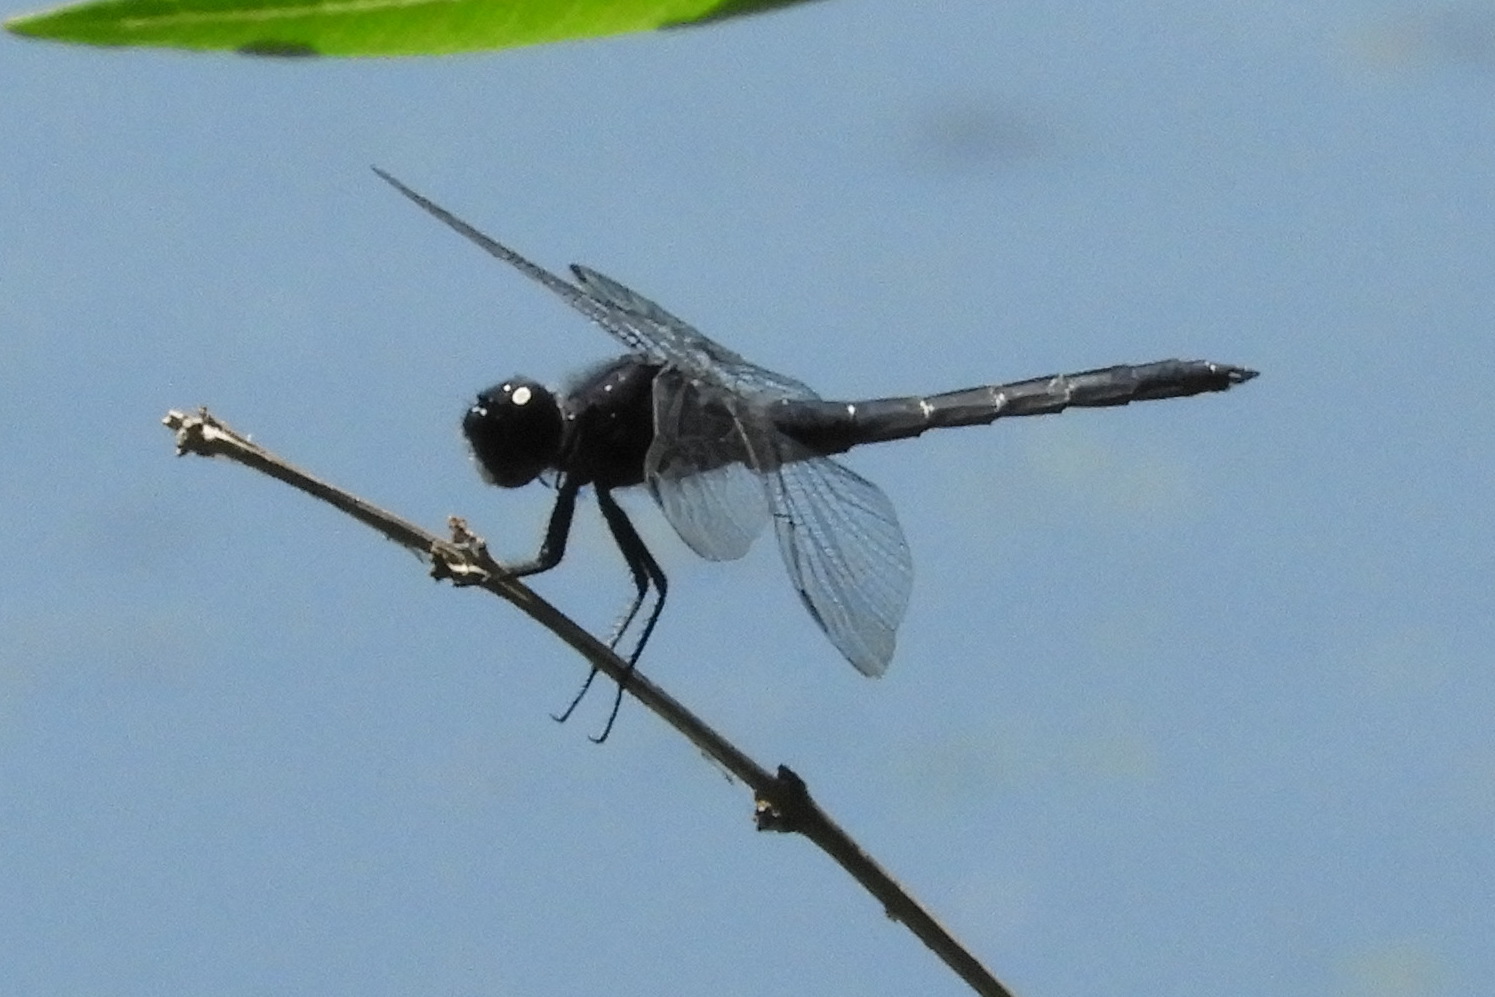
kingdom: Animalia
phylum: Arthropoda
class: Insecta
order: Odonata
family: Libellulidae
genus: Libellula
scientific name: Libellula incesta
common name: Slaty skimmer
